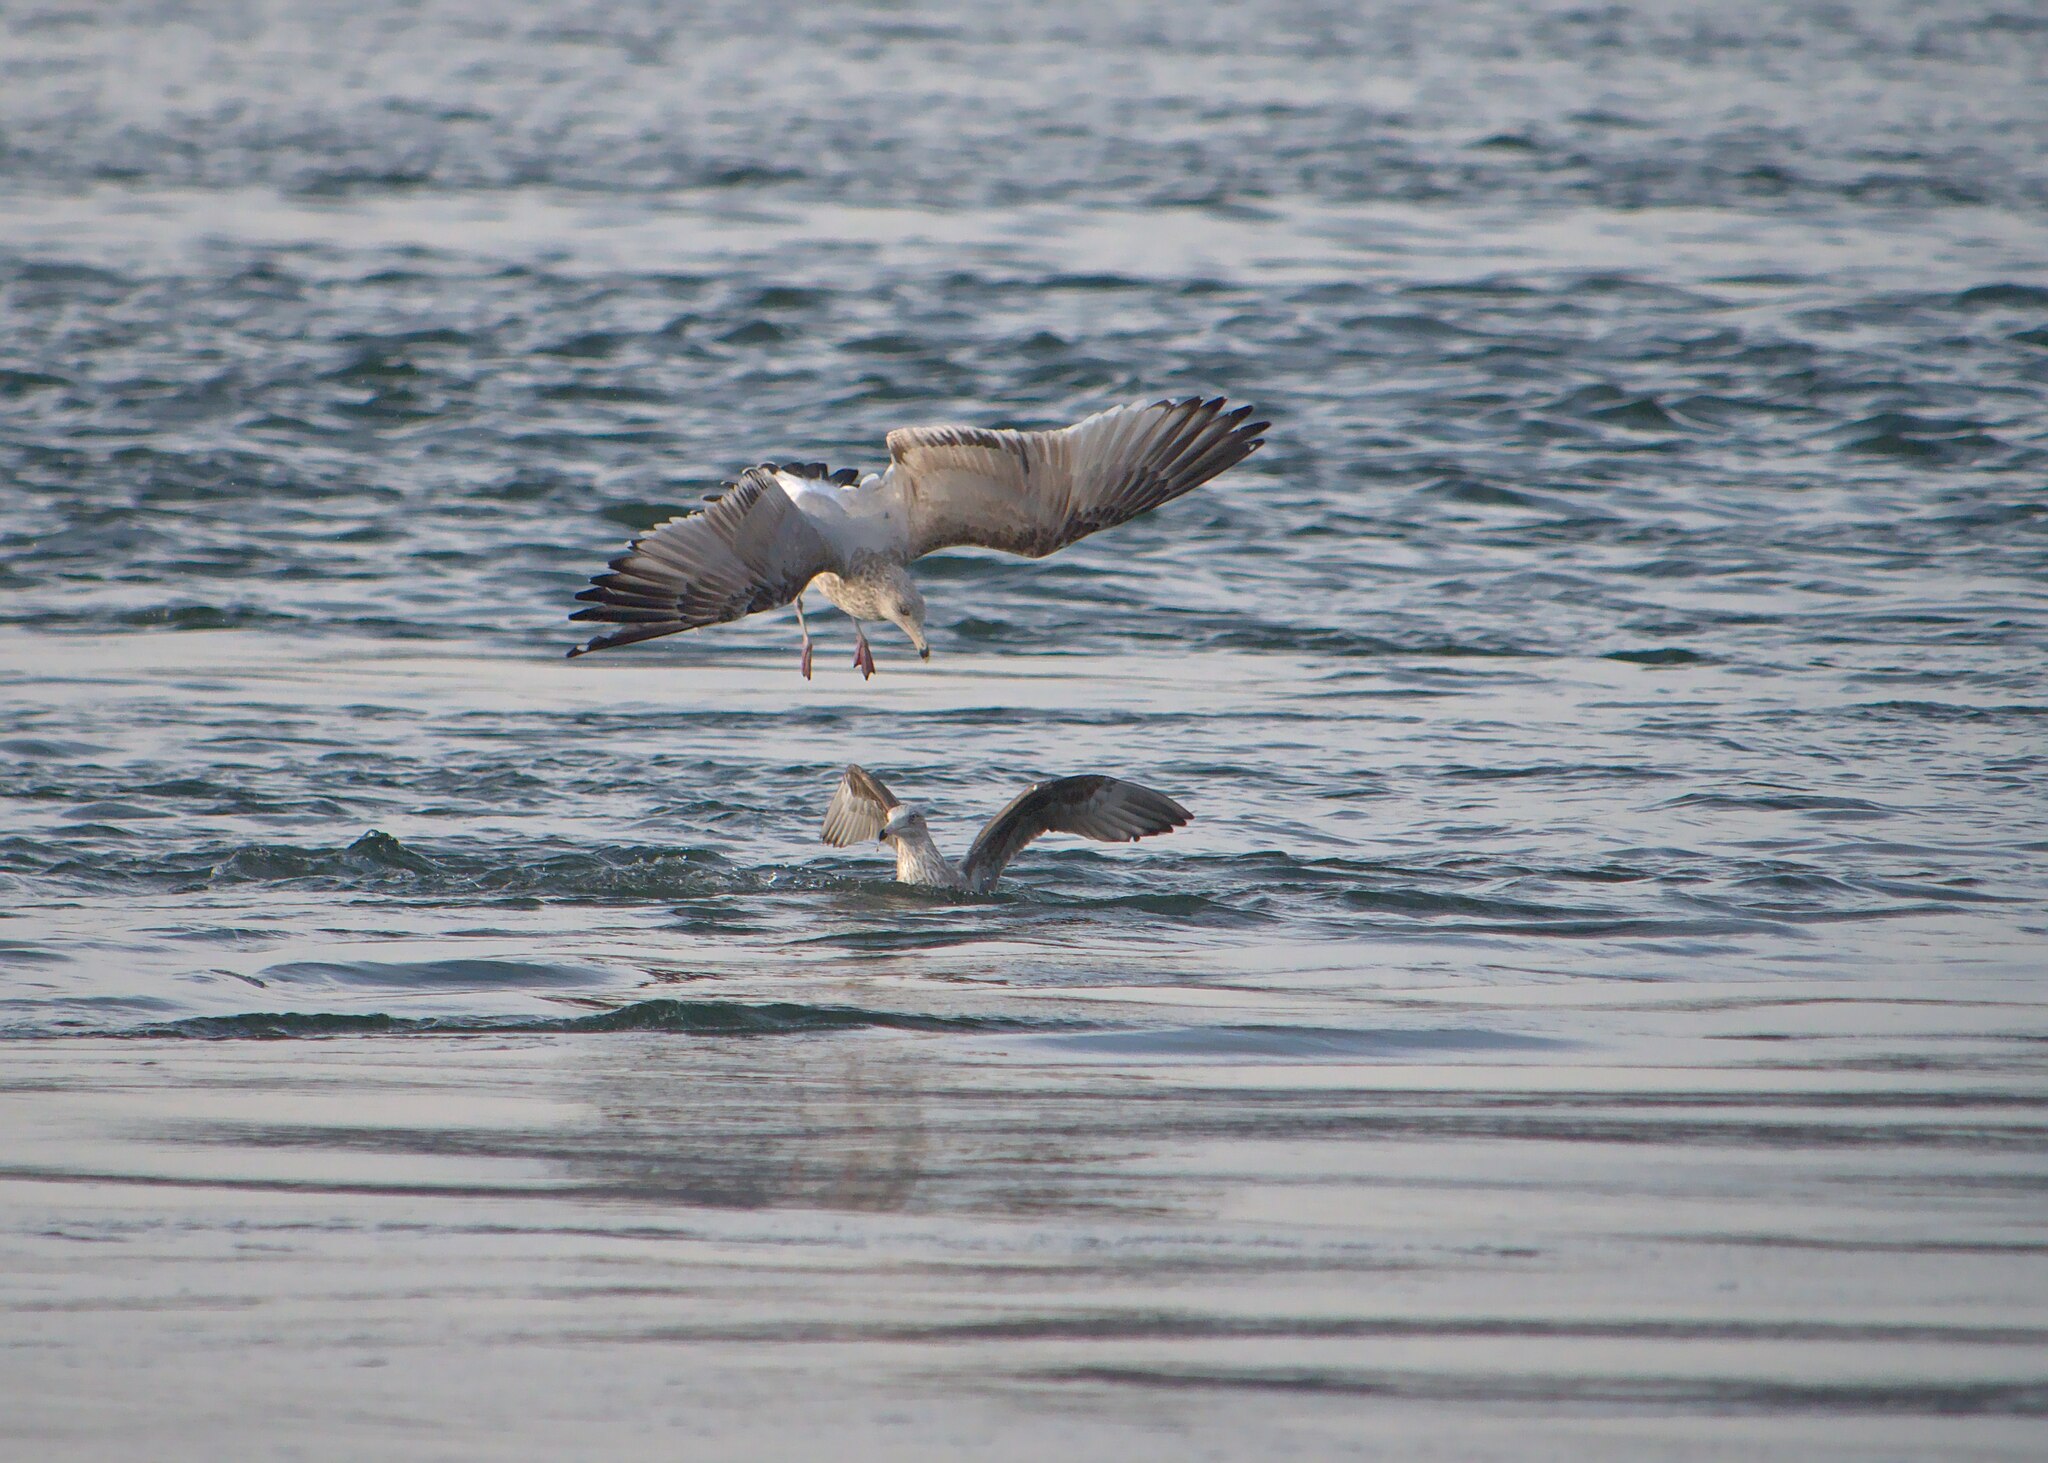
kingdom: Animalia
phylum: Chordata
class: Aves
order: Charadriiformes
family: Laridae
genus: Larus
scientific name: Larus delawarensis
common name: Ring-billed gull
